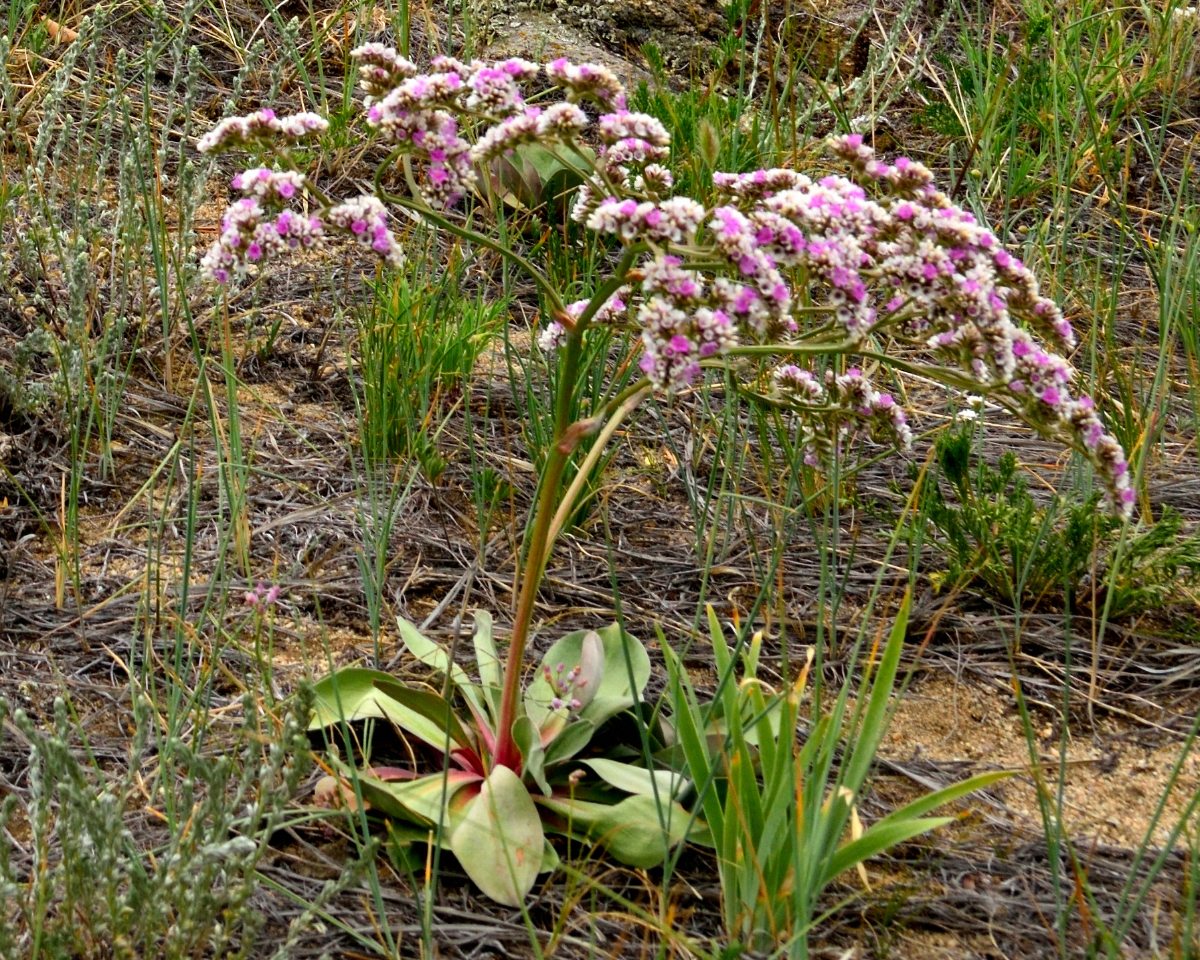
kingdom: Plantae
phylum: Tracheophyta
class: Magnoliopsida
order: Caryophyllales
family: Plumbaginaceae
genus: Goniolimon
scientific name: Goniolimon speciosum
